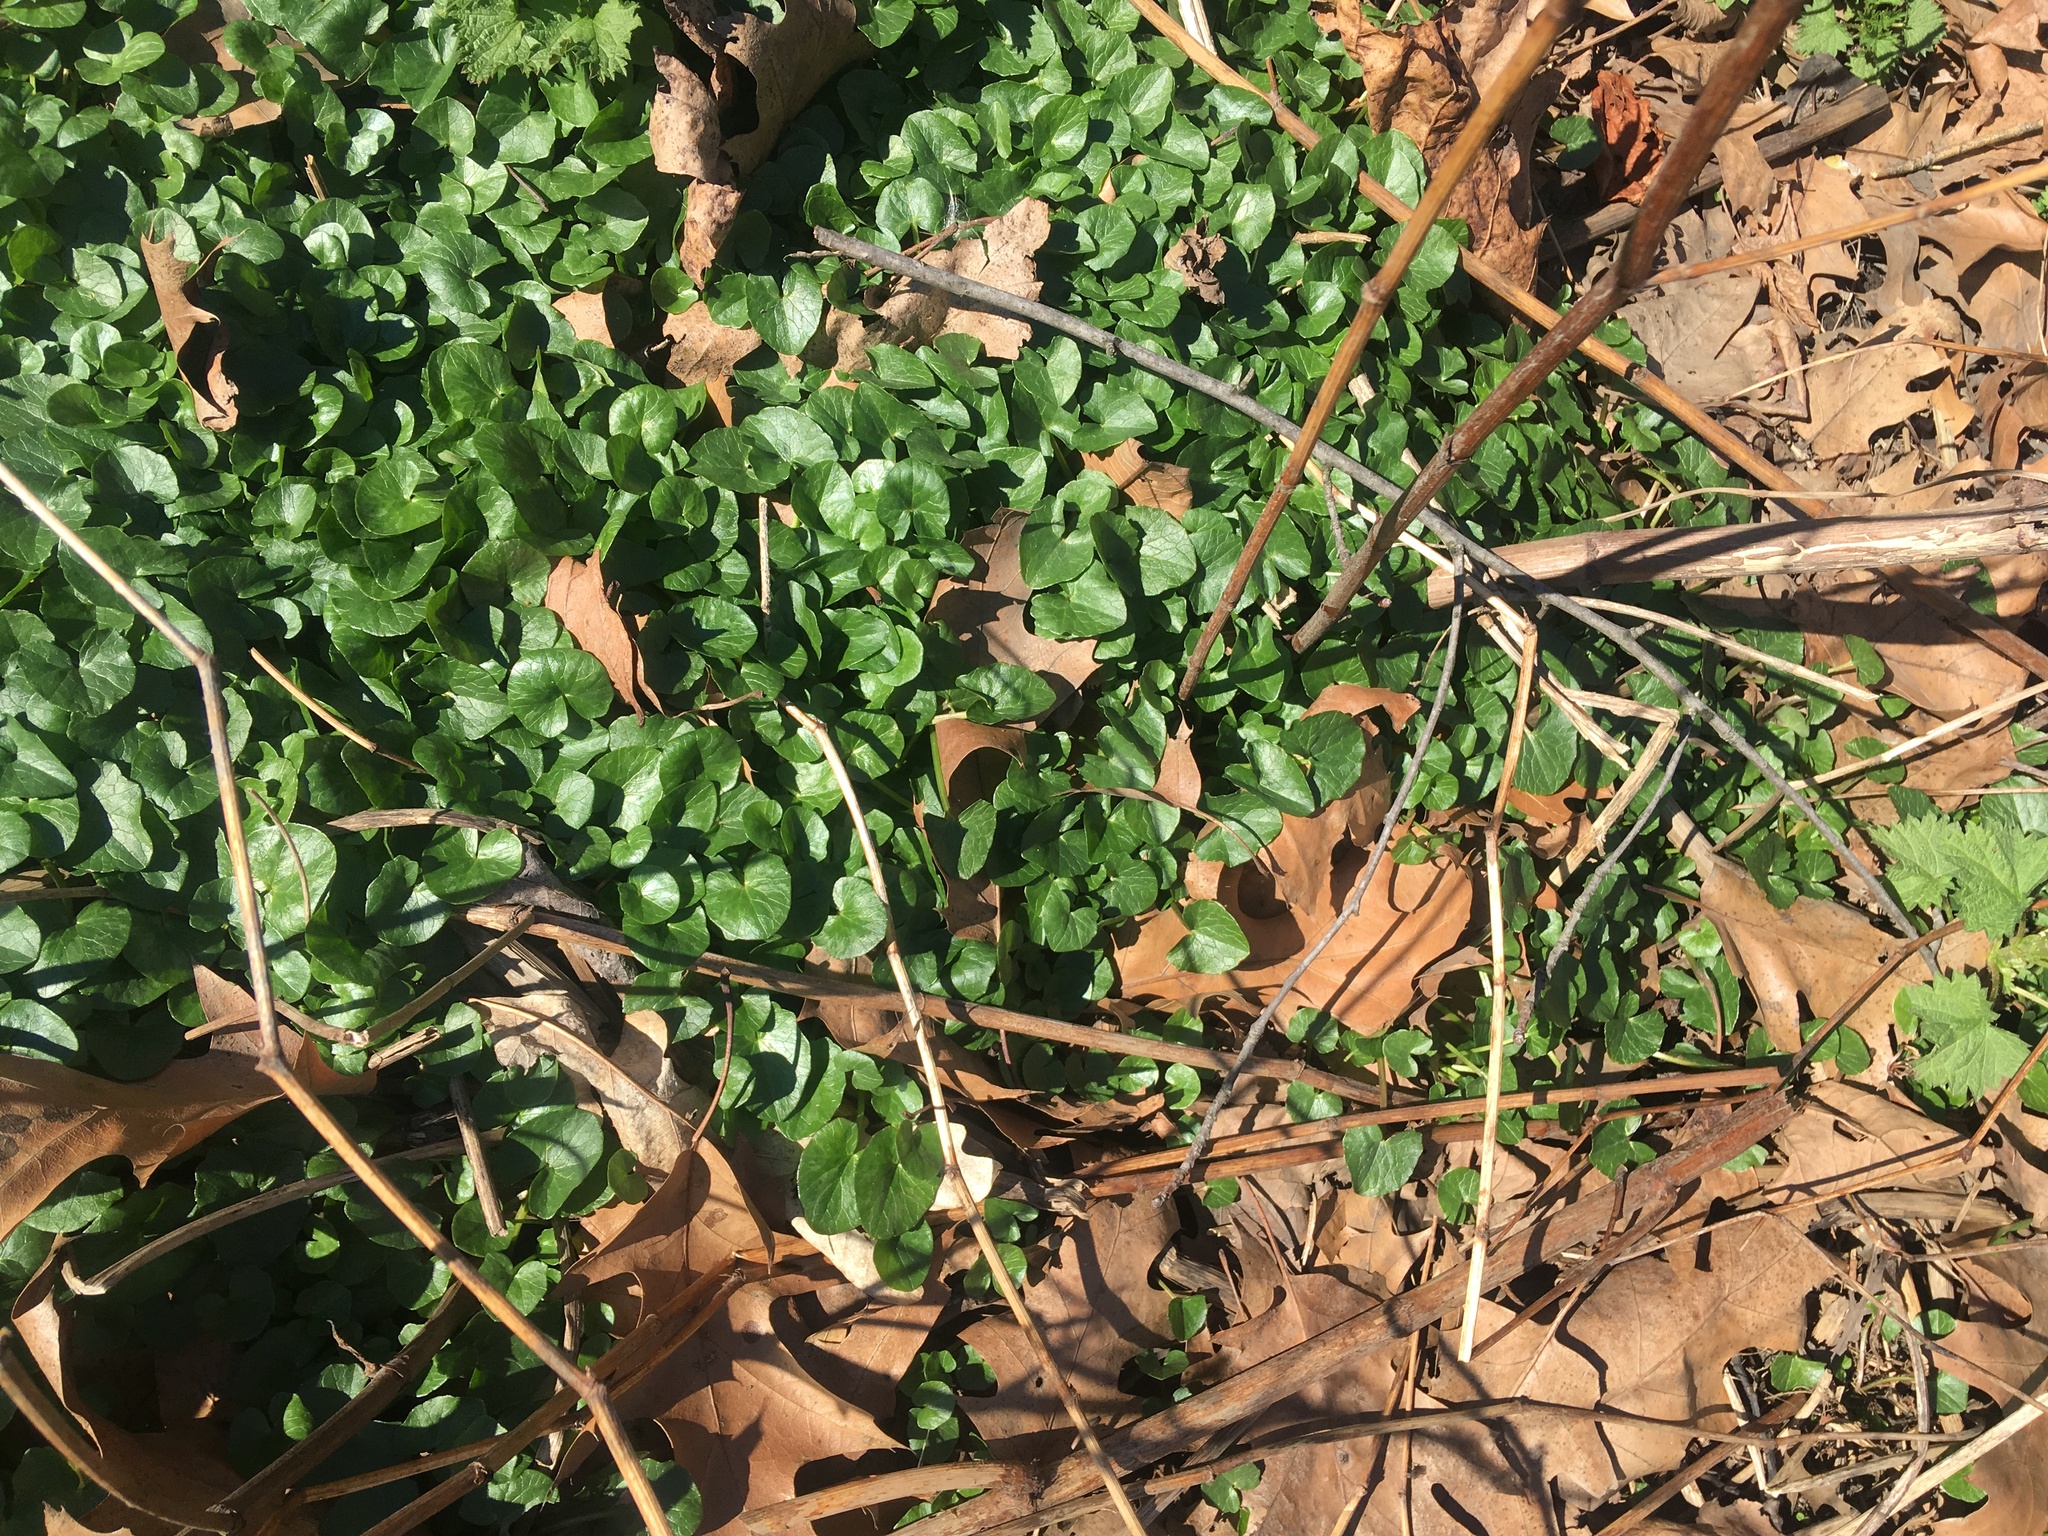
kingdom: Plantae
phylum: Tracheophyta
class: Magnoliopsida
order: Ranunculales
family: Ranunculaceae
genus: Ficaria
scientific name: Ficaria verna
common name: Lesser celandine
